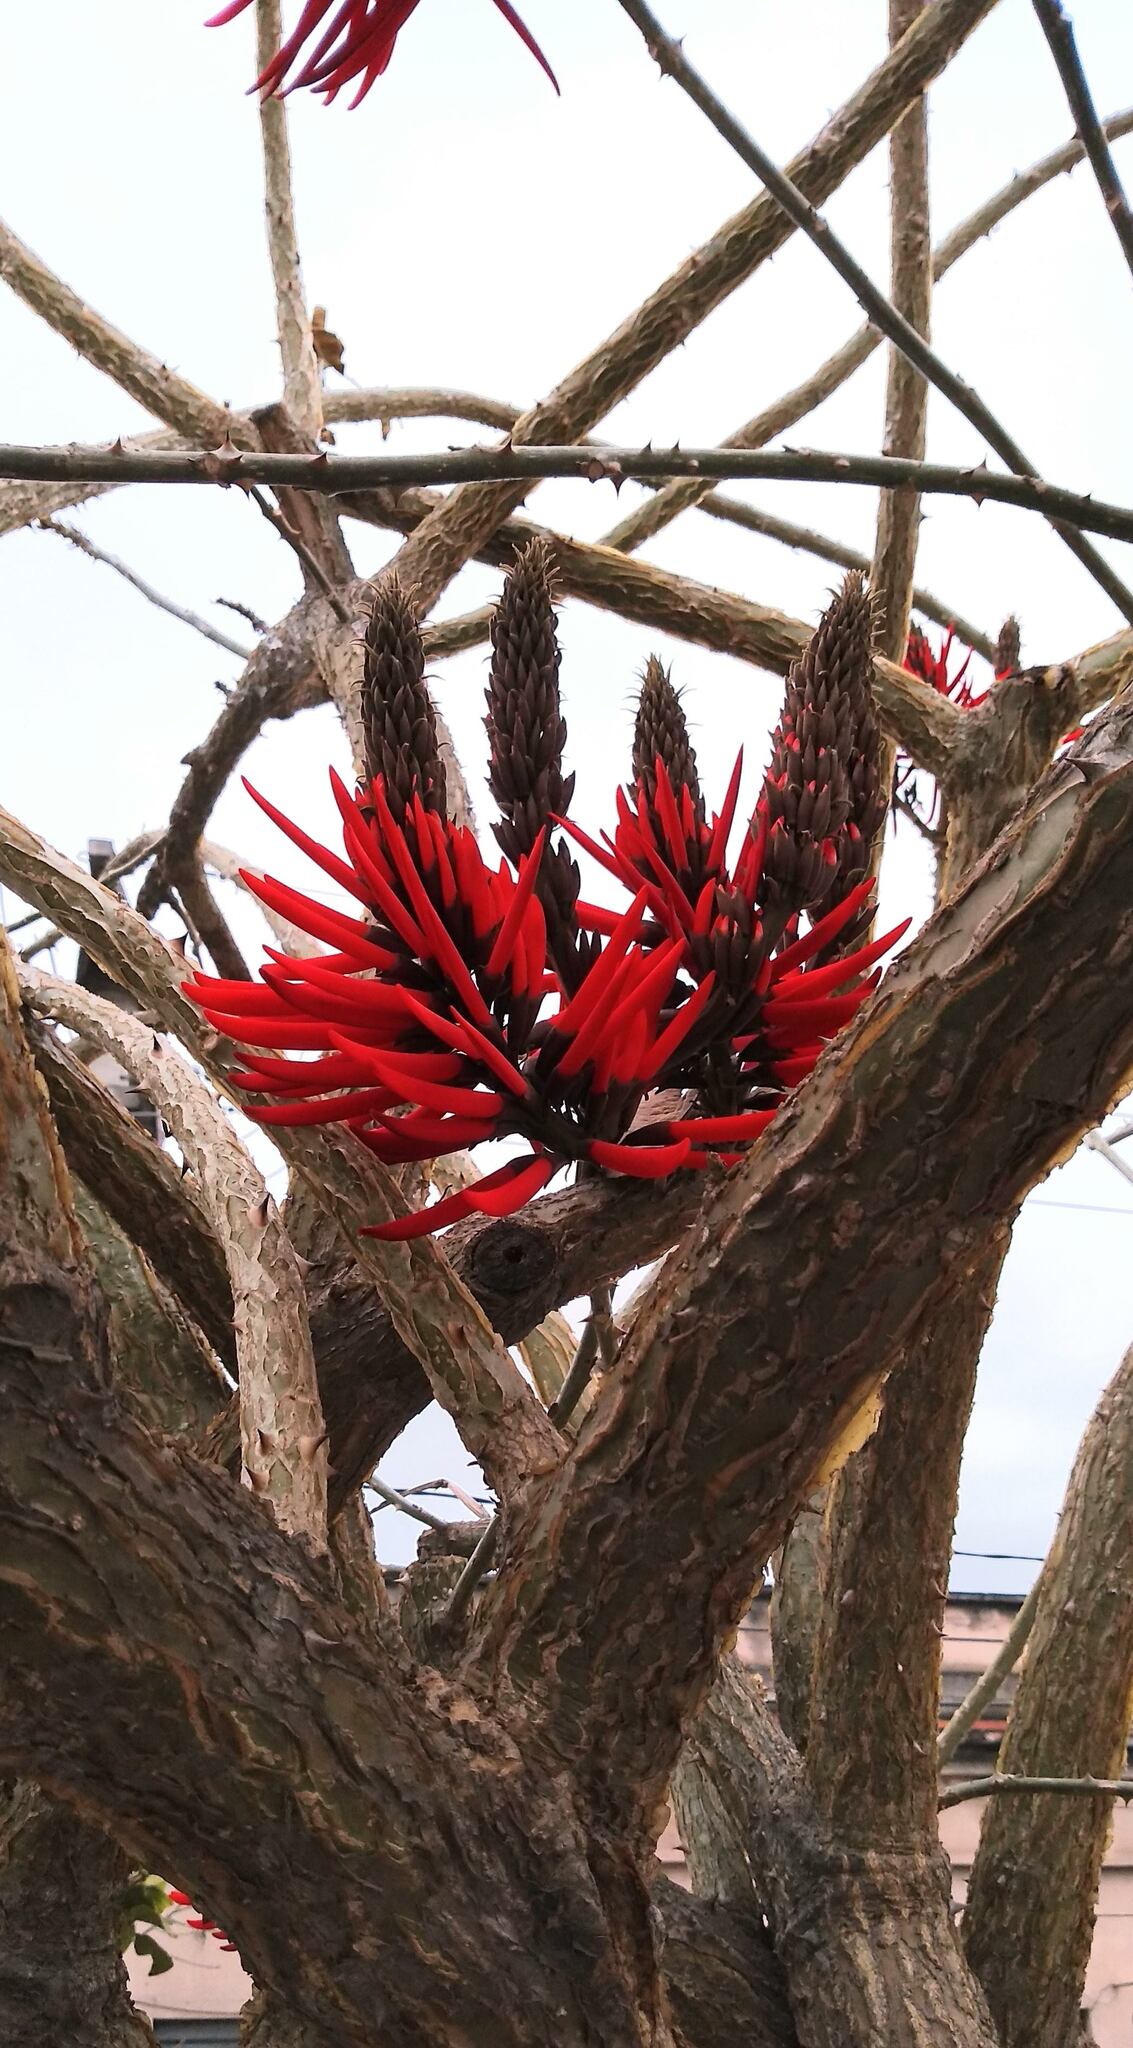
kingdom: Plantae
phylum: Tracheophyta
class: Magnoliopsida
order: Fabales
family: Fabaceae
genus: Erythrina
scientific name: Erythrina speciosa
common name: Coral tree
